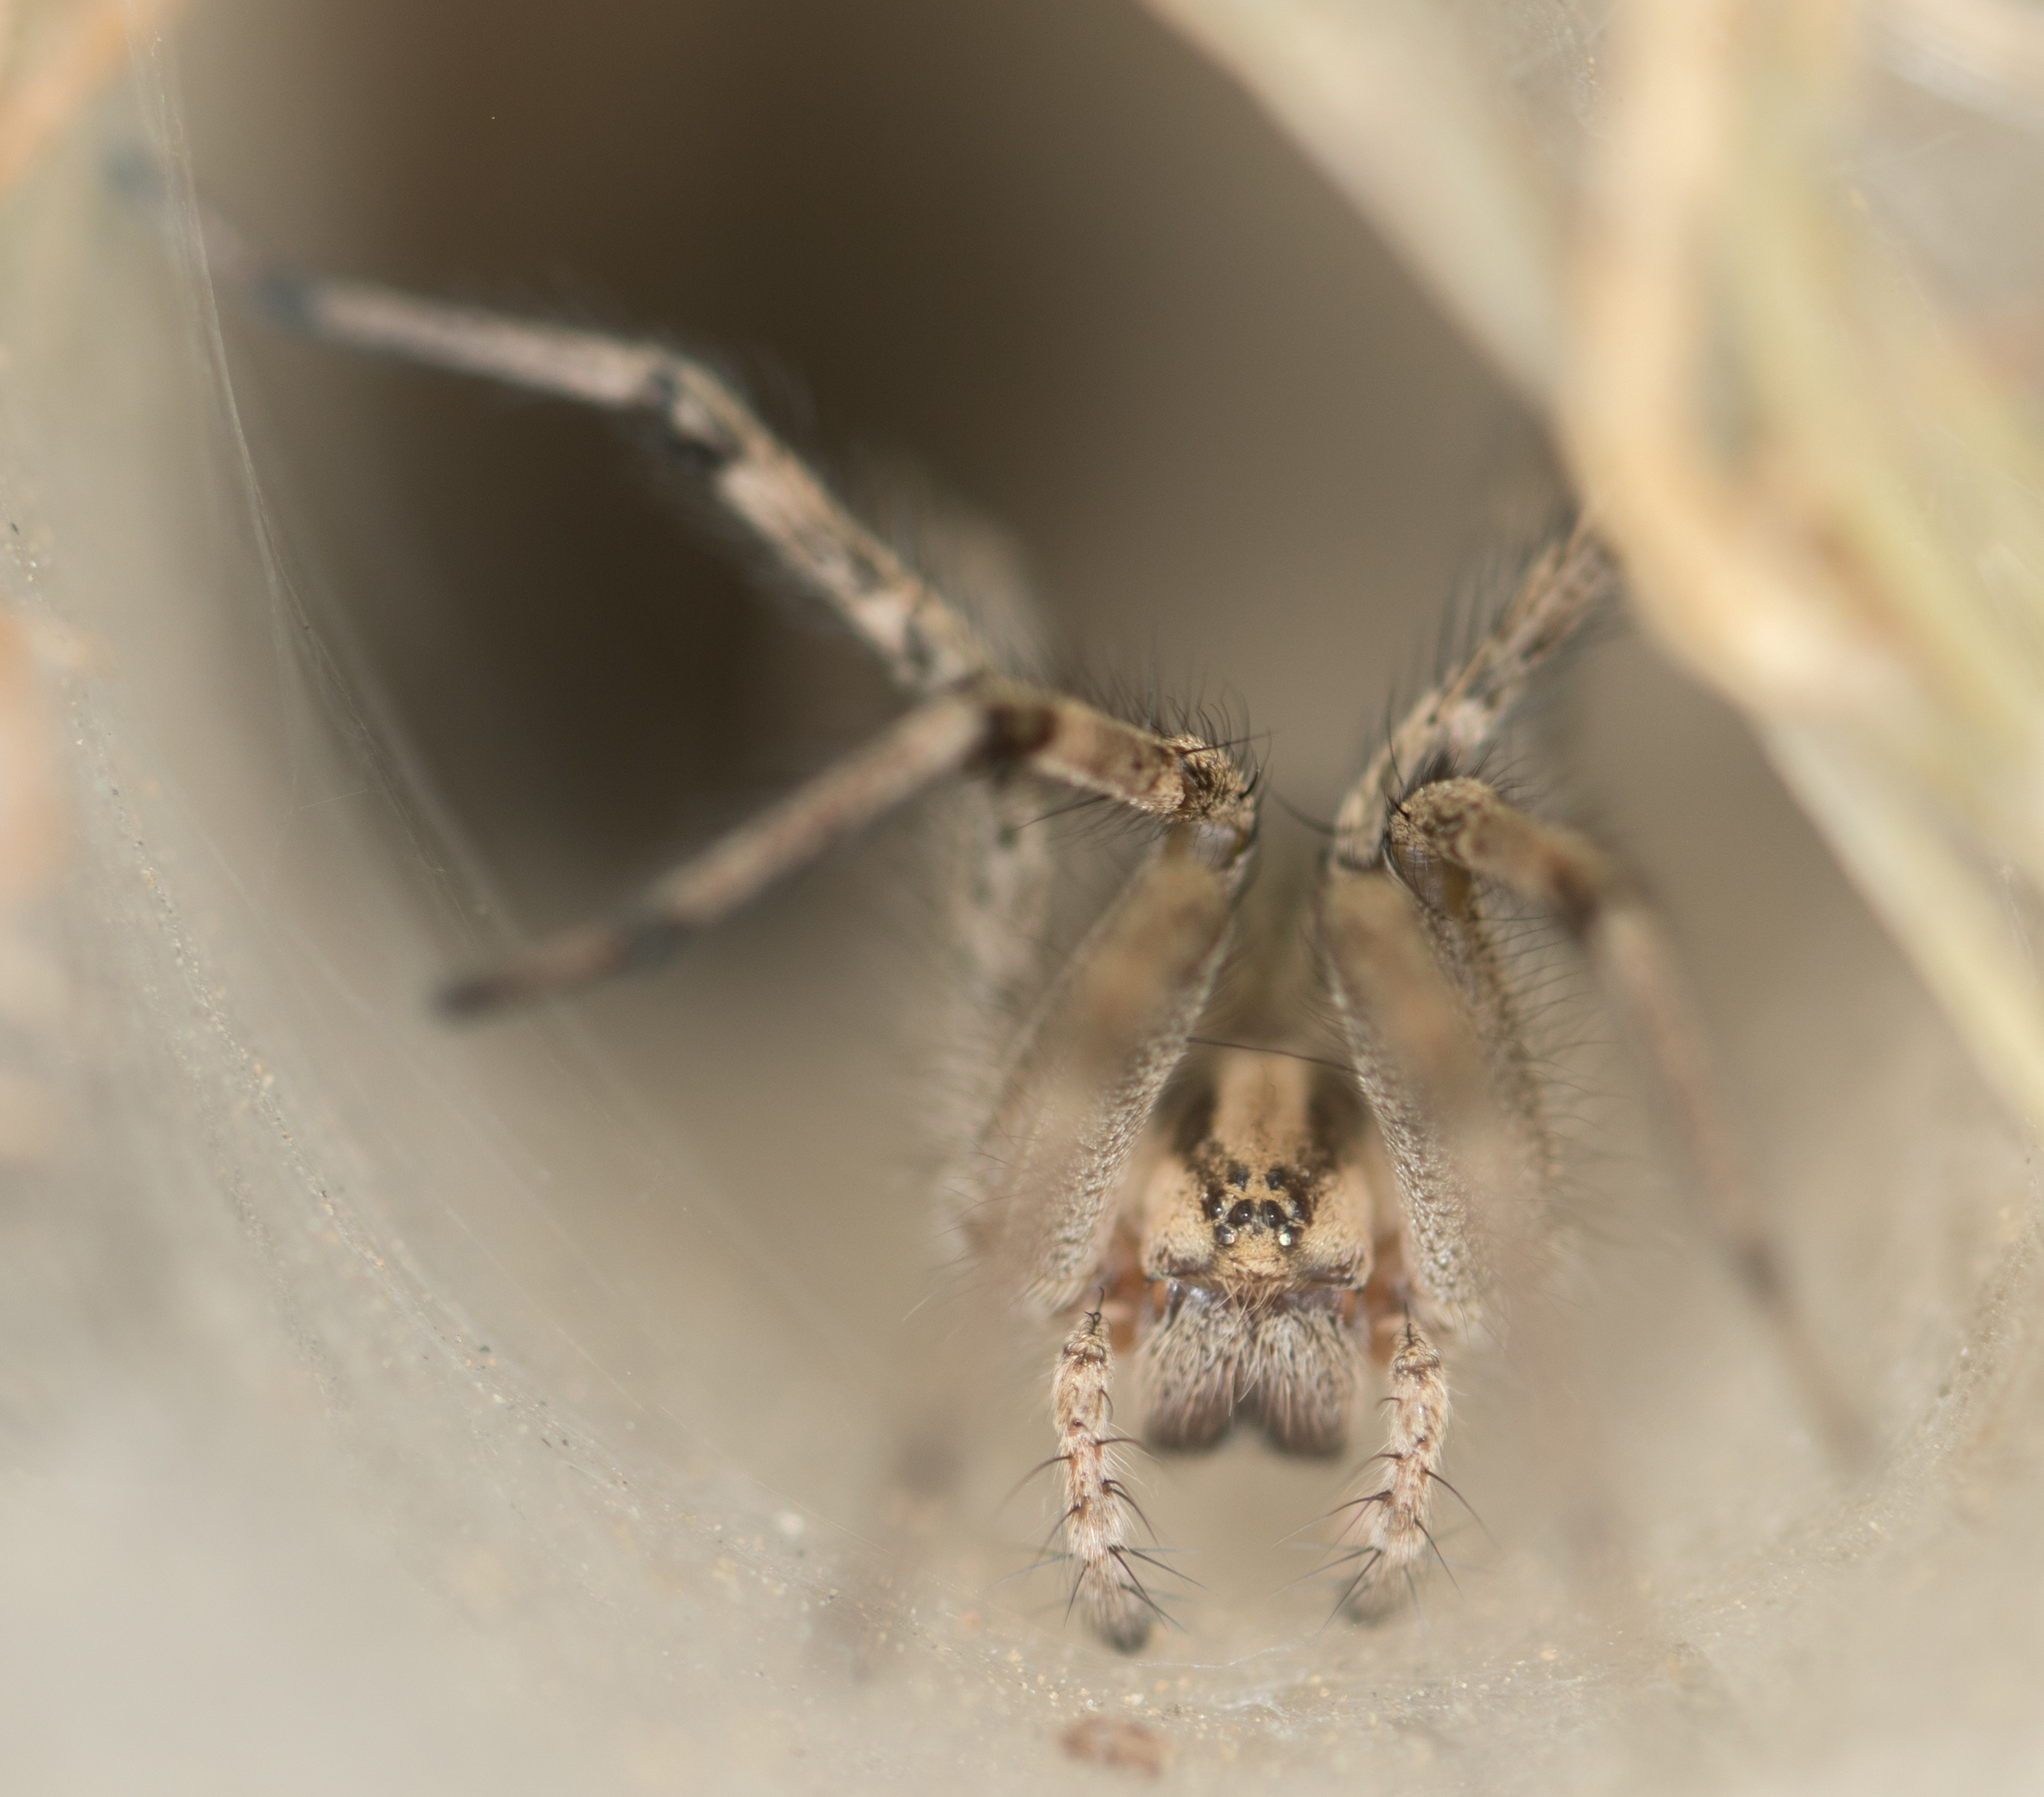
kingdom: Animalia
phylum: Arthropoda
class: Arachnida
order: Araneae
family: Agelenidae
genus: Agelenopsis
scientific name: Agelenopsis aperta
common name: Desert grass spider
